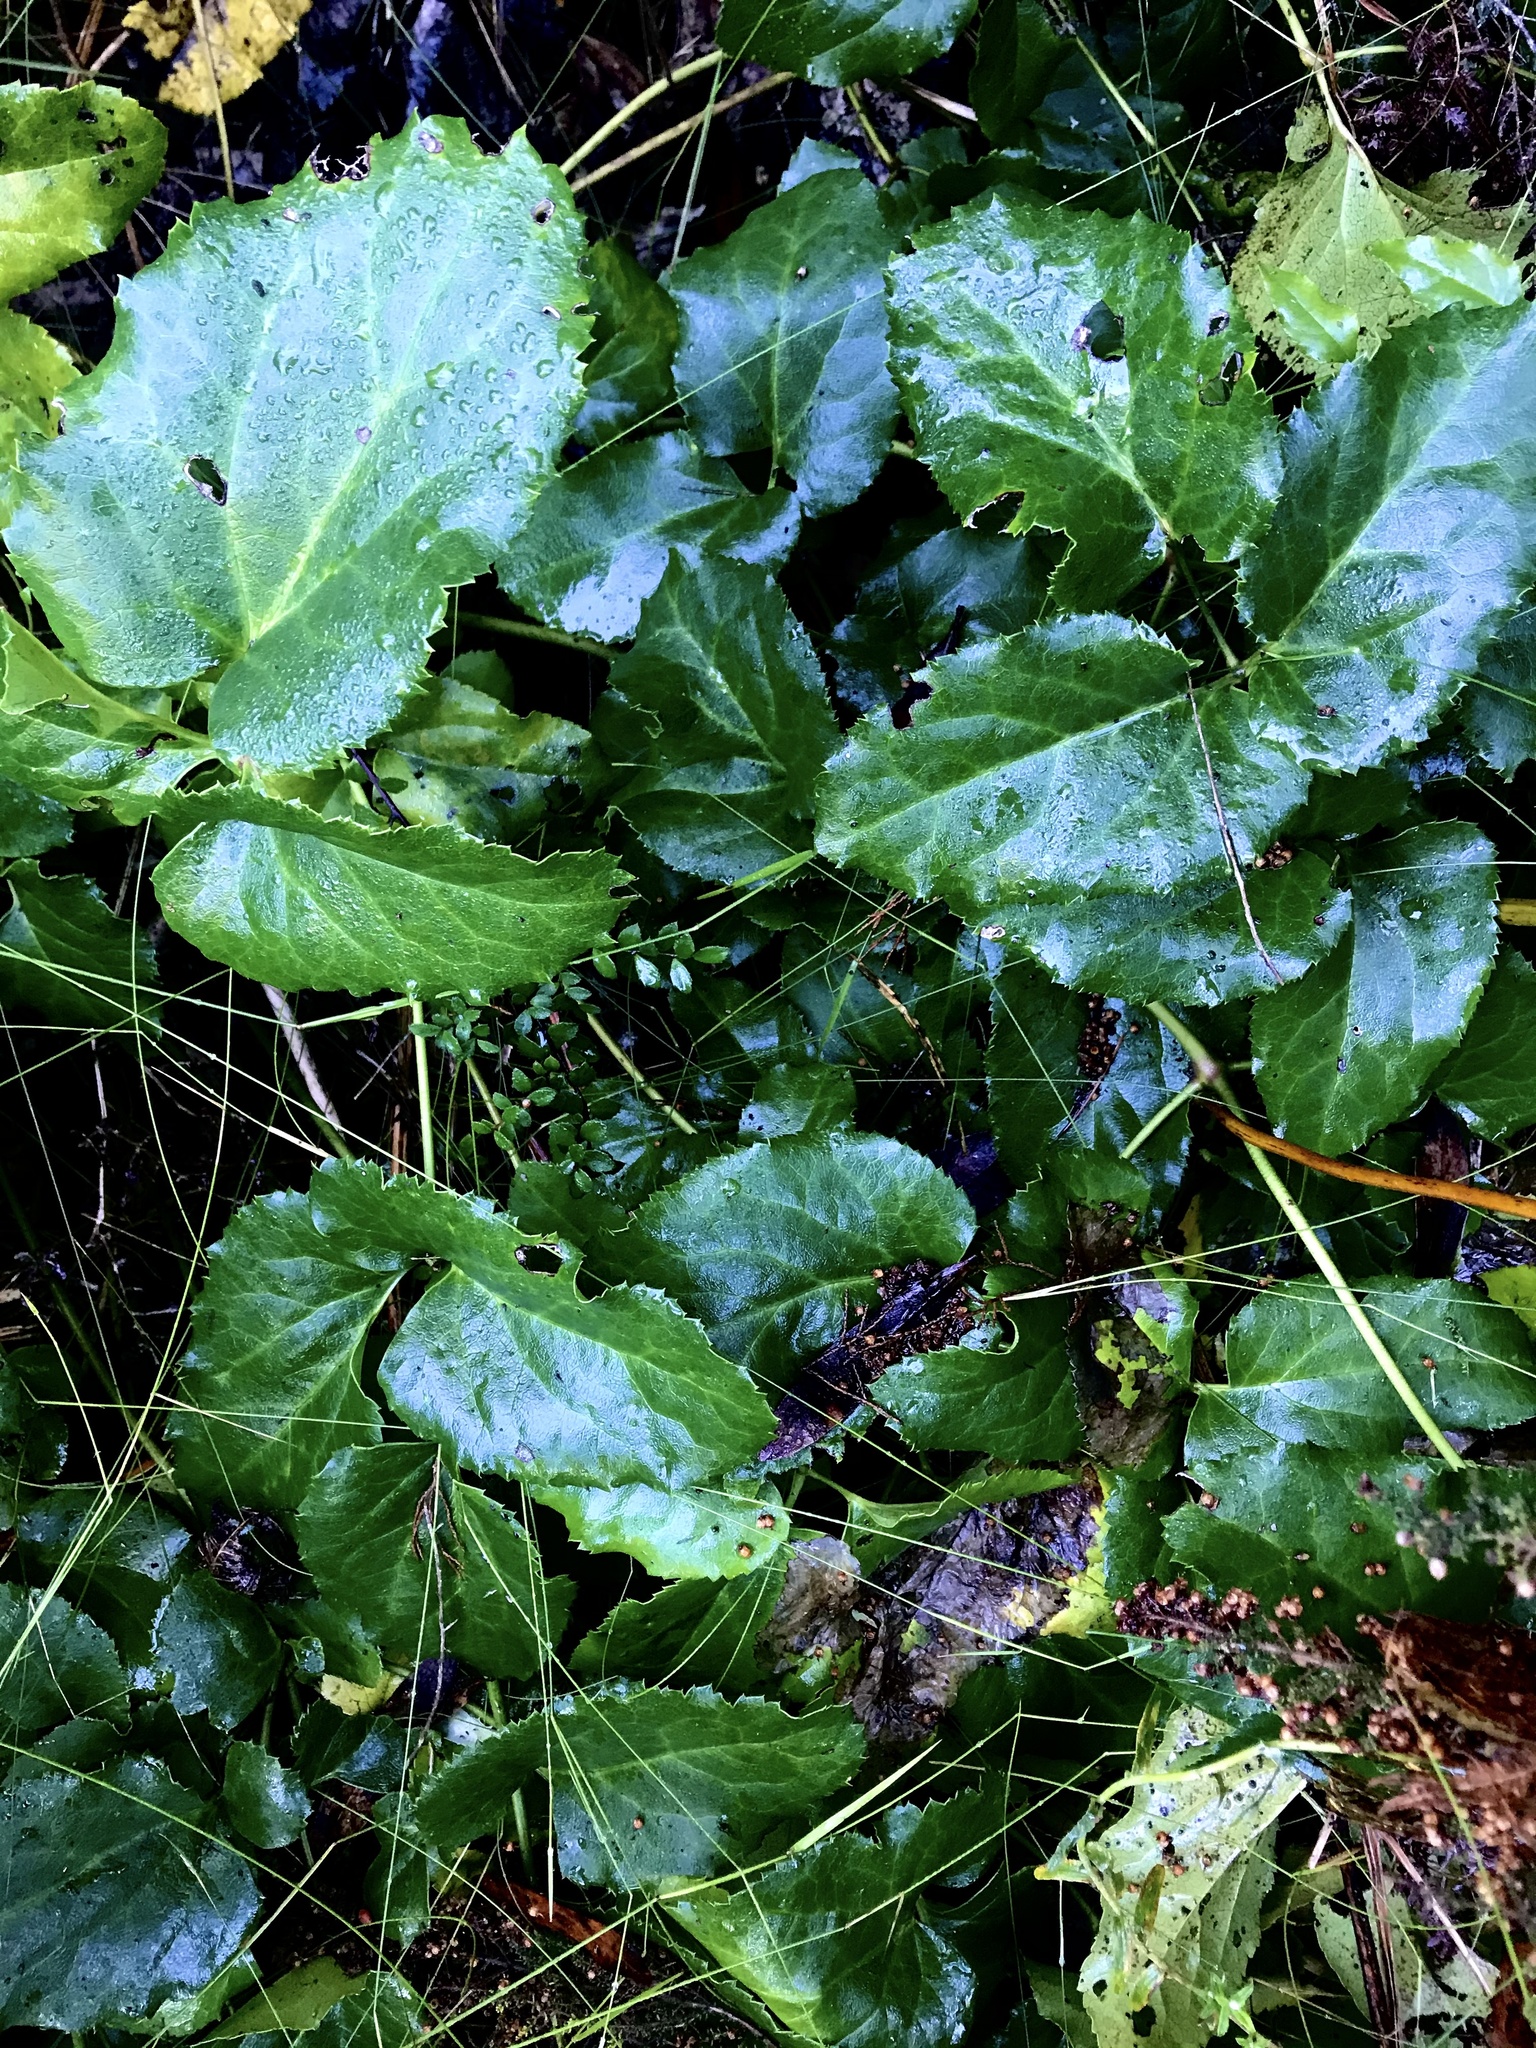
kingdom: Plantae
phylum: Tracheophyta
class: Magnoliopsida
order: Ranunculales
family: Ranunculaceae
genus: Knowltonia
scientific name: Knowltonia vesicatoria
